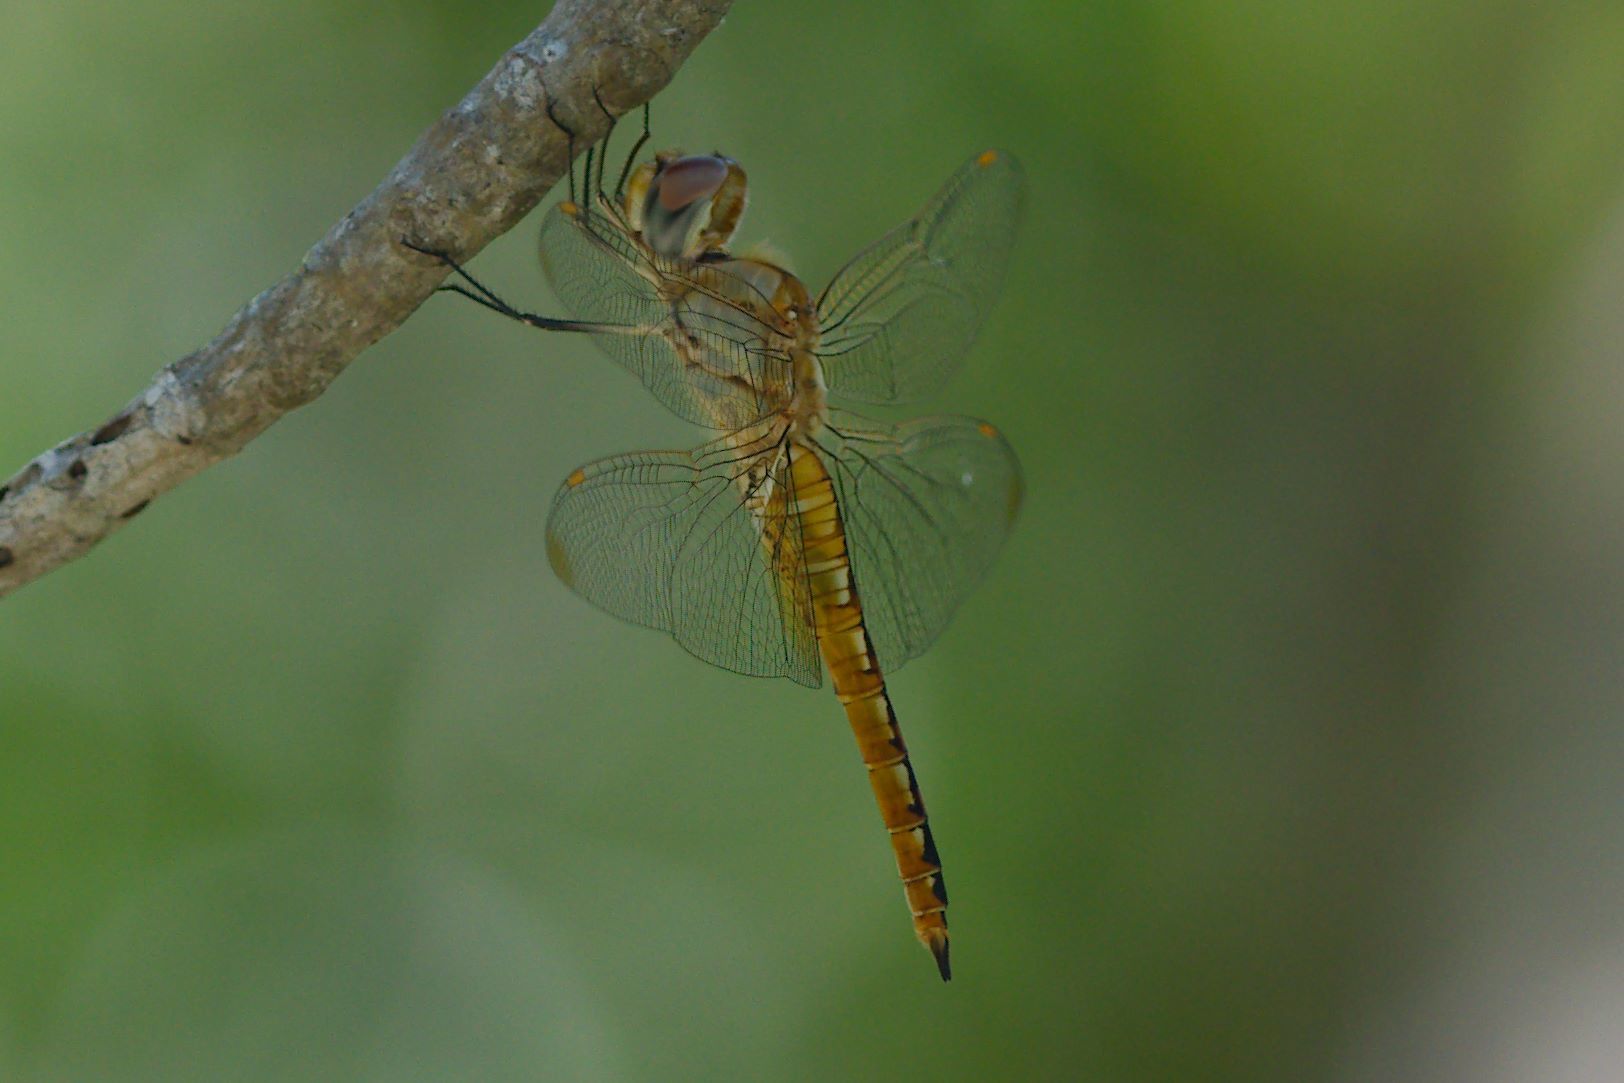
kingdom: Animalia
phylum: Arthropoda
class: Insecta
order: Odonata
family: Libellulidae
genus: Pantala
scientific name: Pantala flavescens
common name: Wandering glider
